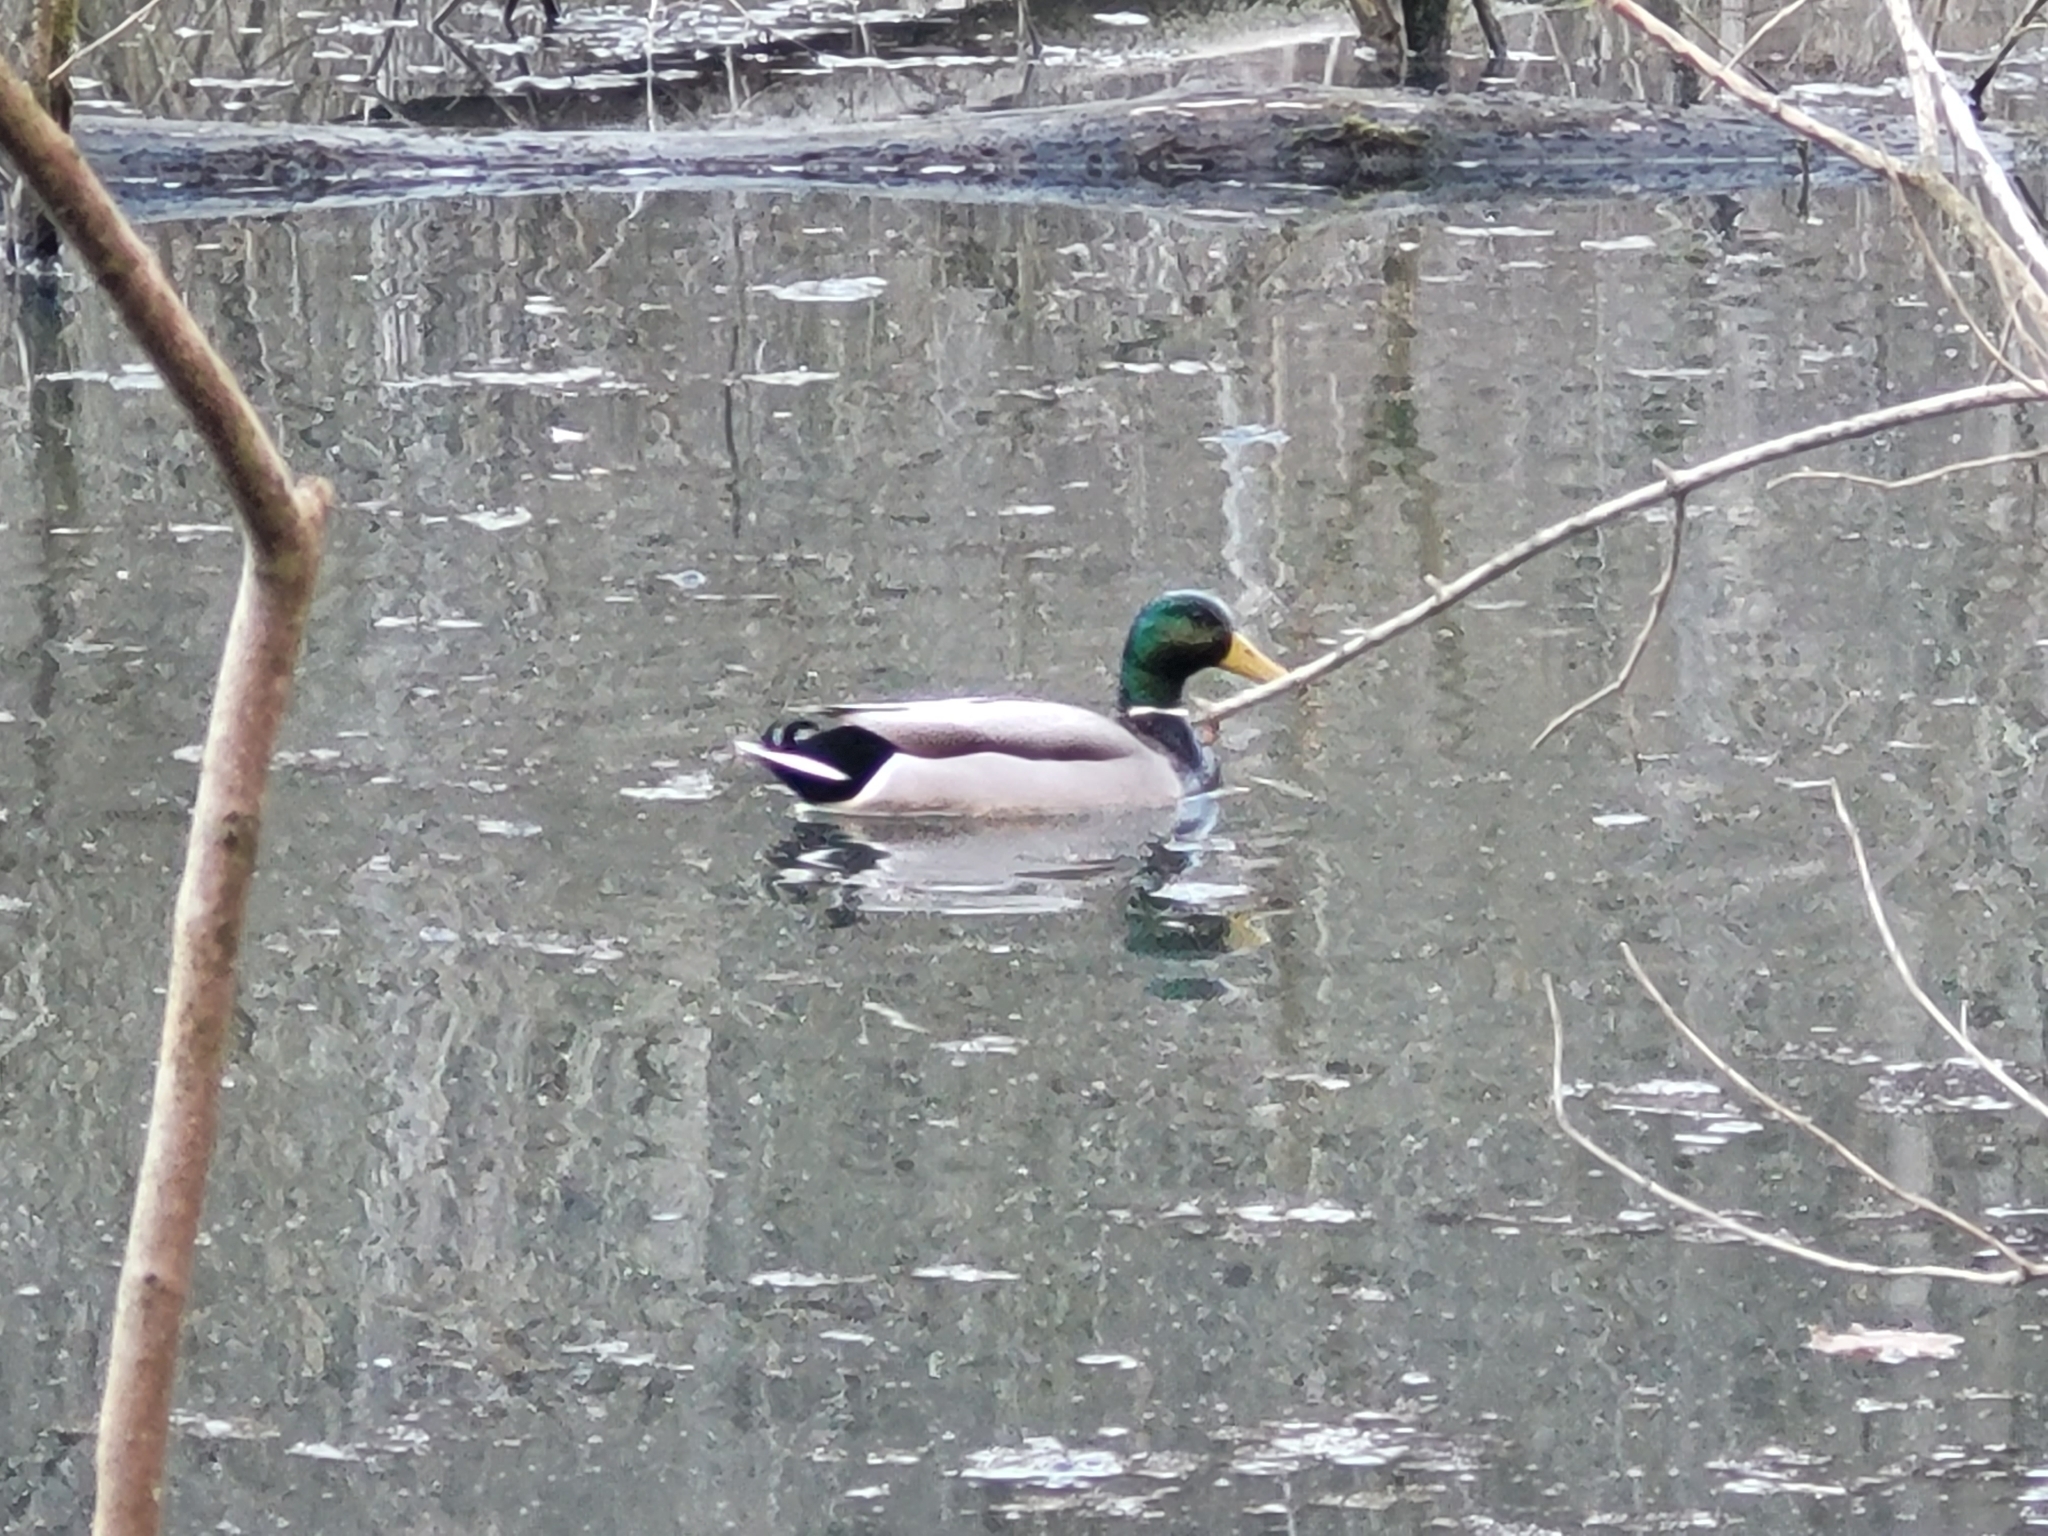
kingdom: Animalia
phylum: Chordata
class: Aves
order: Anseriformes
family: Anatidae
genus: Anas
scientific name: Anas platyrhynchos
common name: Mallard
